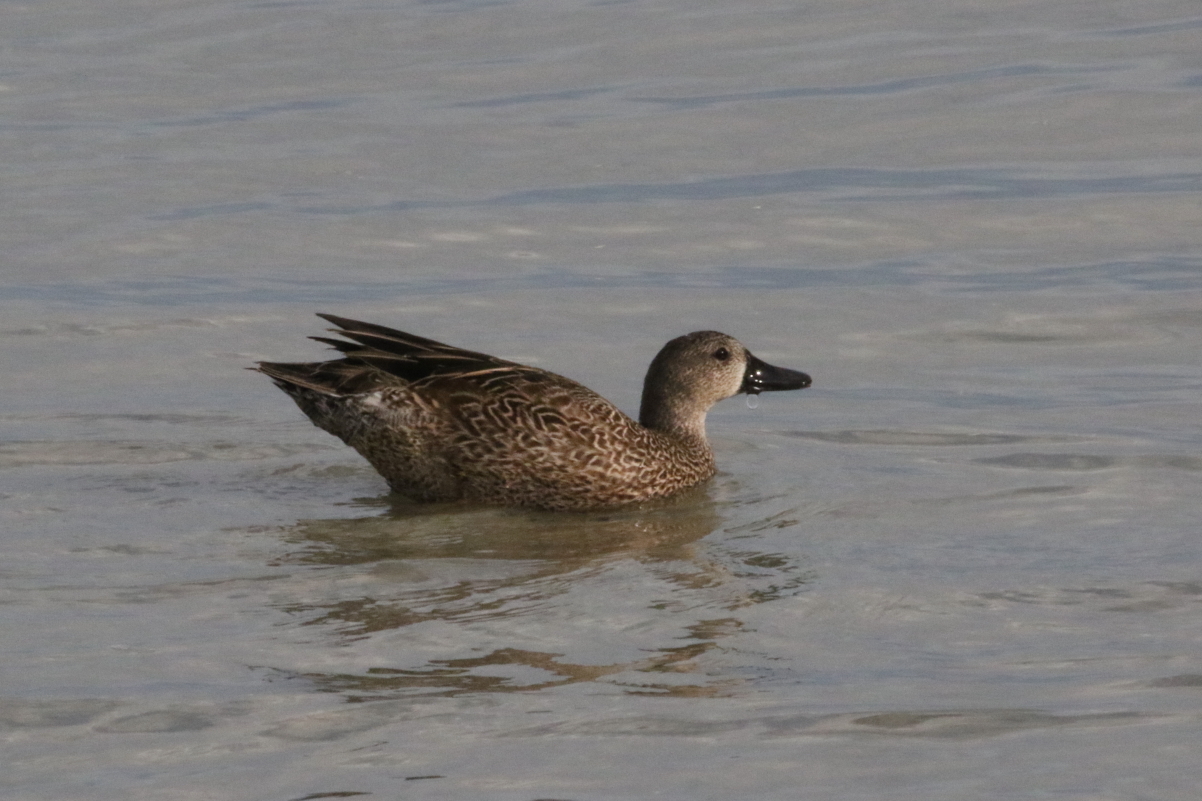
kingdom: Animalia
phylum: Chordata
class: Aves
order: Anseriformes
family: Anatidae
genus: Spatula
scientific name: Spatula discors
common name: Blue-winged teal
